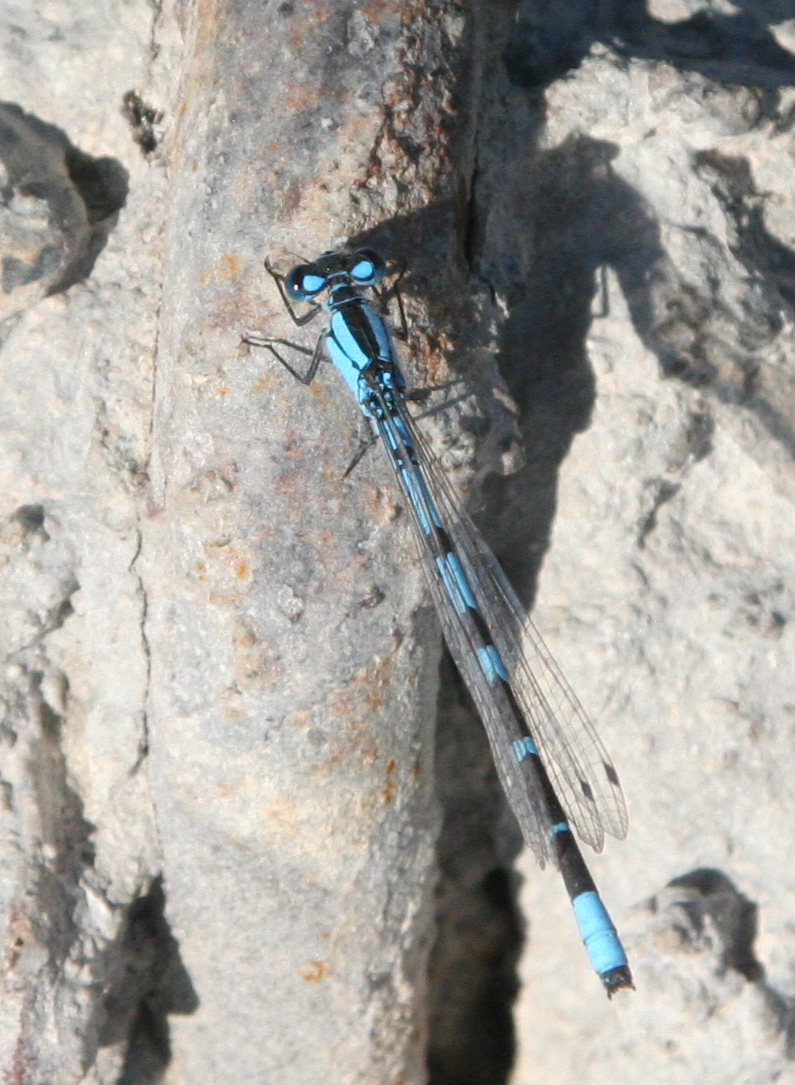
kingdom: Animalia
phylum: Arthropoda
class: Insecta
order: Odonata
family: Coenagrionidae
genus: Enallagma
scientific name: Enallagma cyathigerum
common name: Common blue damselfly
